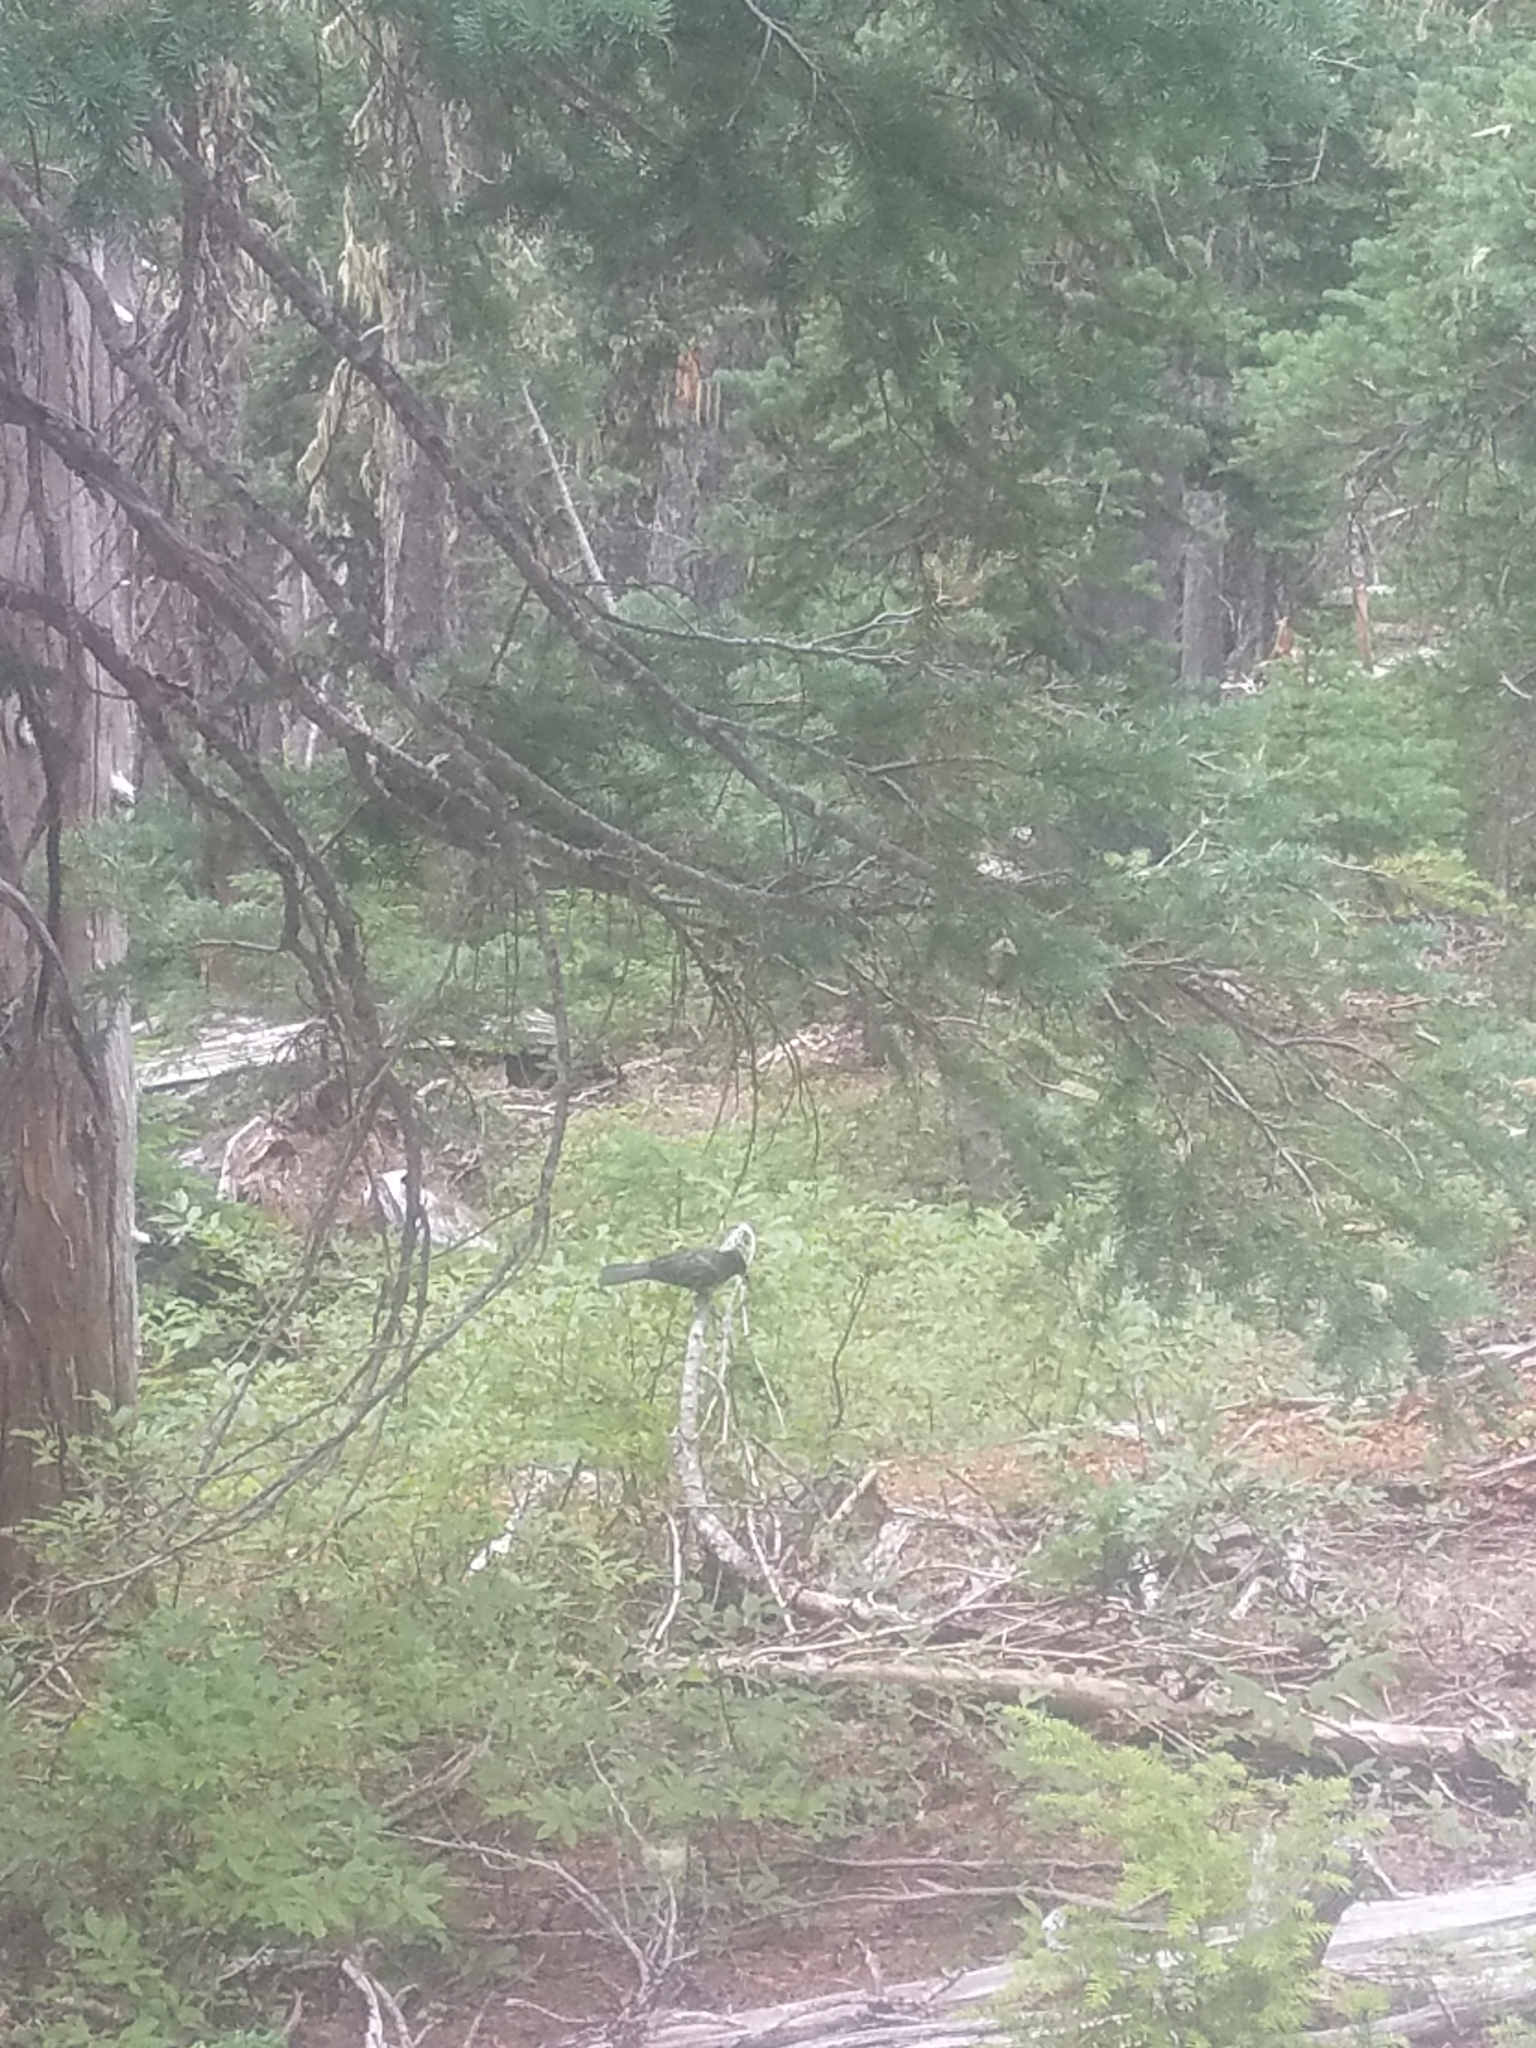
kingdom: Animalia
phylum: Chordata
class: Aves
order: Passeriformes
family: Corvidae
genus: Perisoreus
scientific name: Perisoreus canadensis
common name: Gray jay
